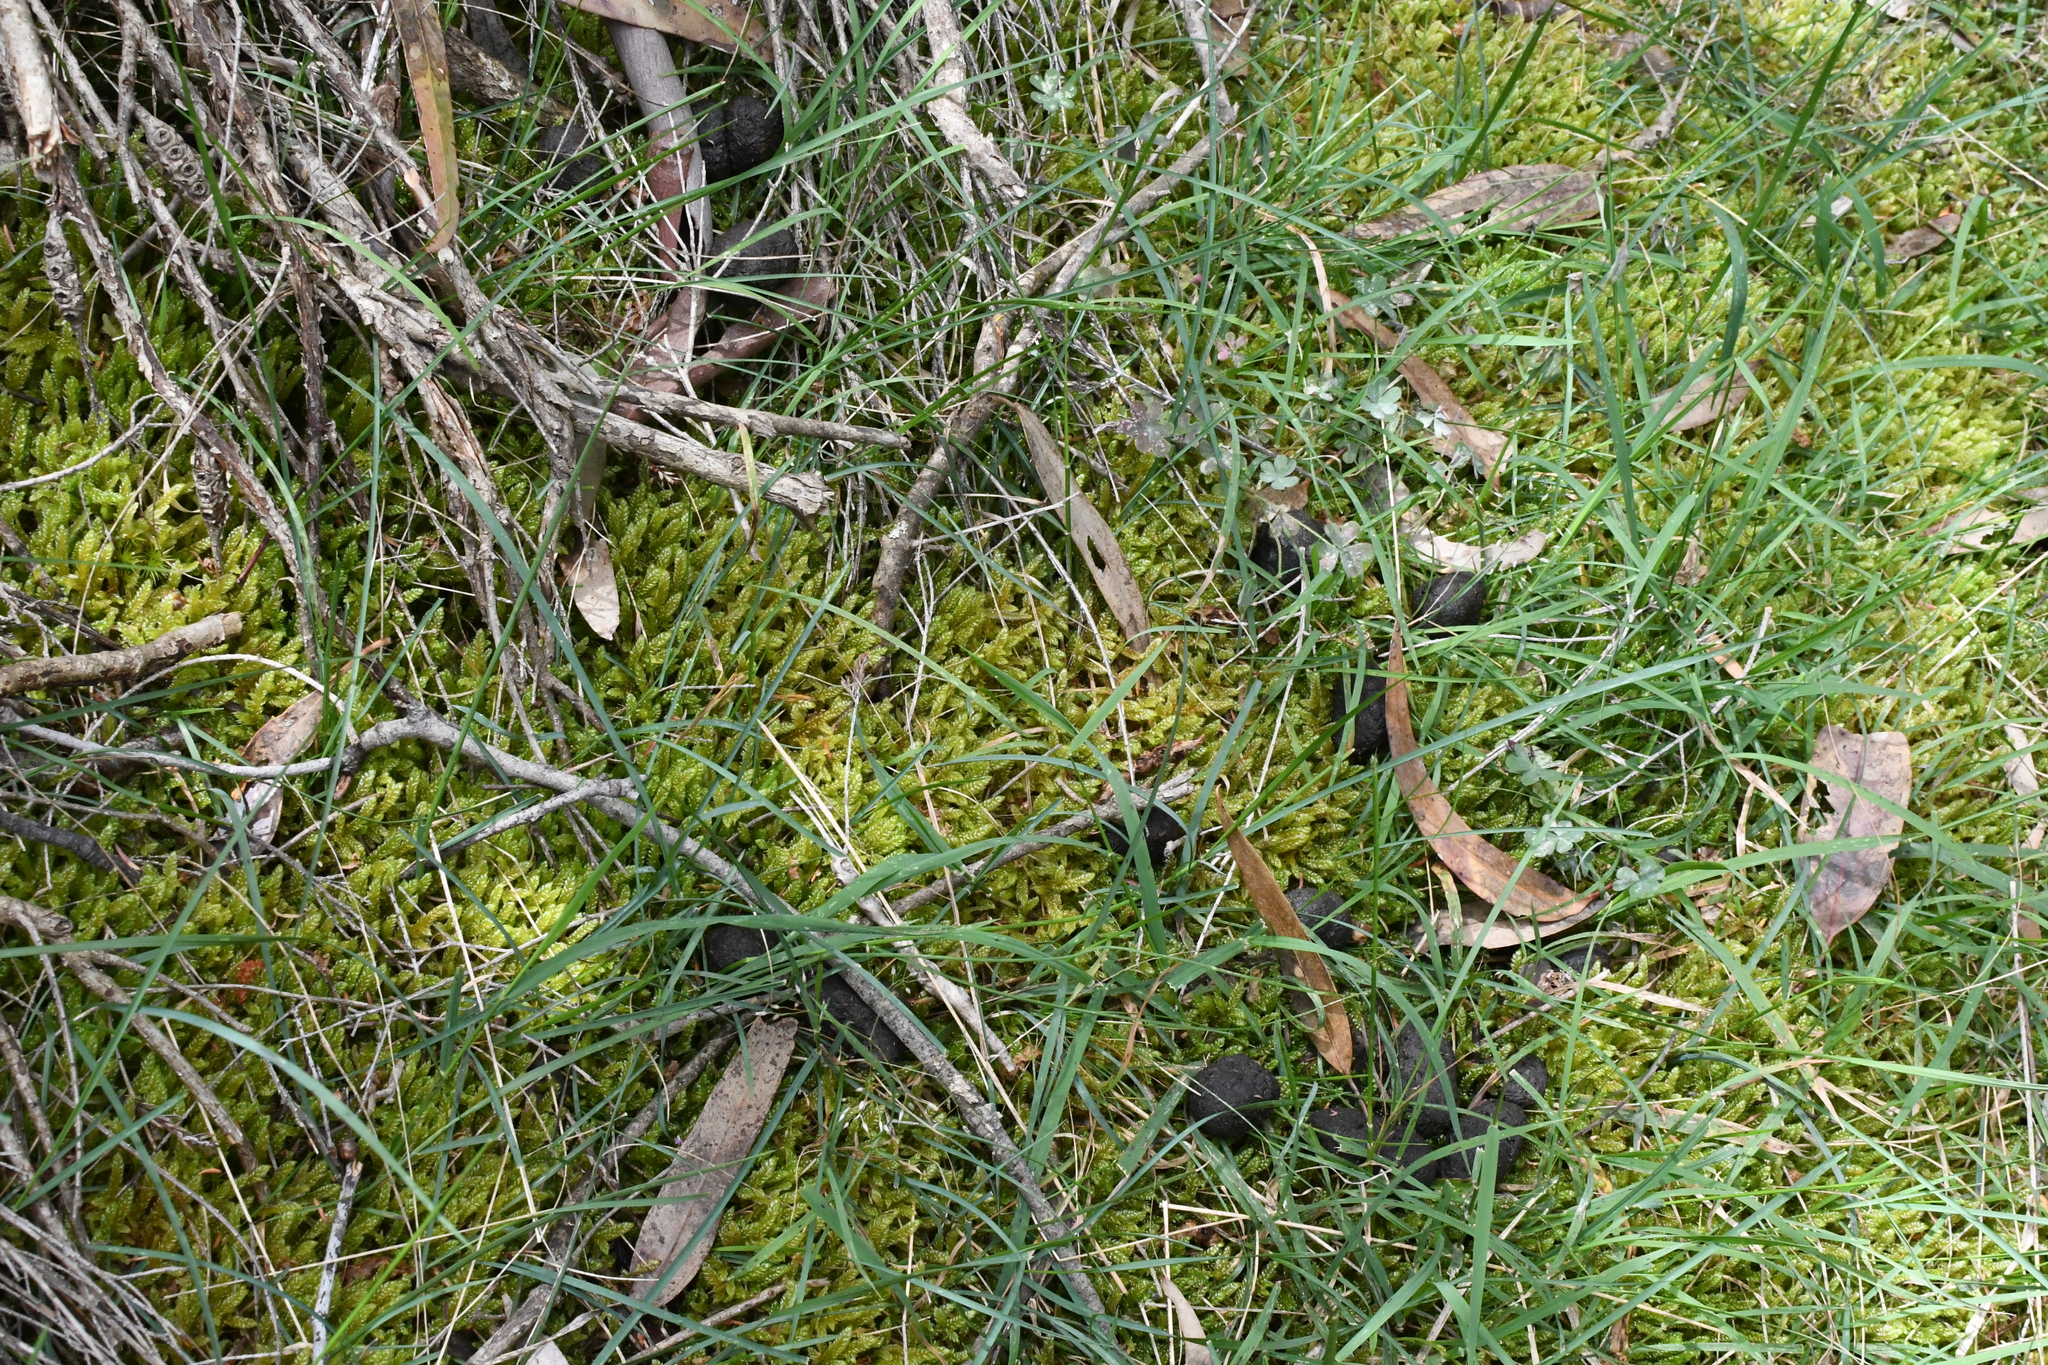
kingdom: Plantae
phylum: Bryophyta
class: Bryopsida
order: Hypnales
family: Hypnaceae
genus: Hypnum
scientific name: Hypnum cupressiforme
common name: Cypress-leaved plait-moss
